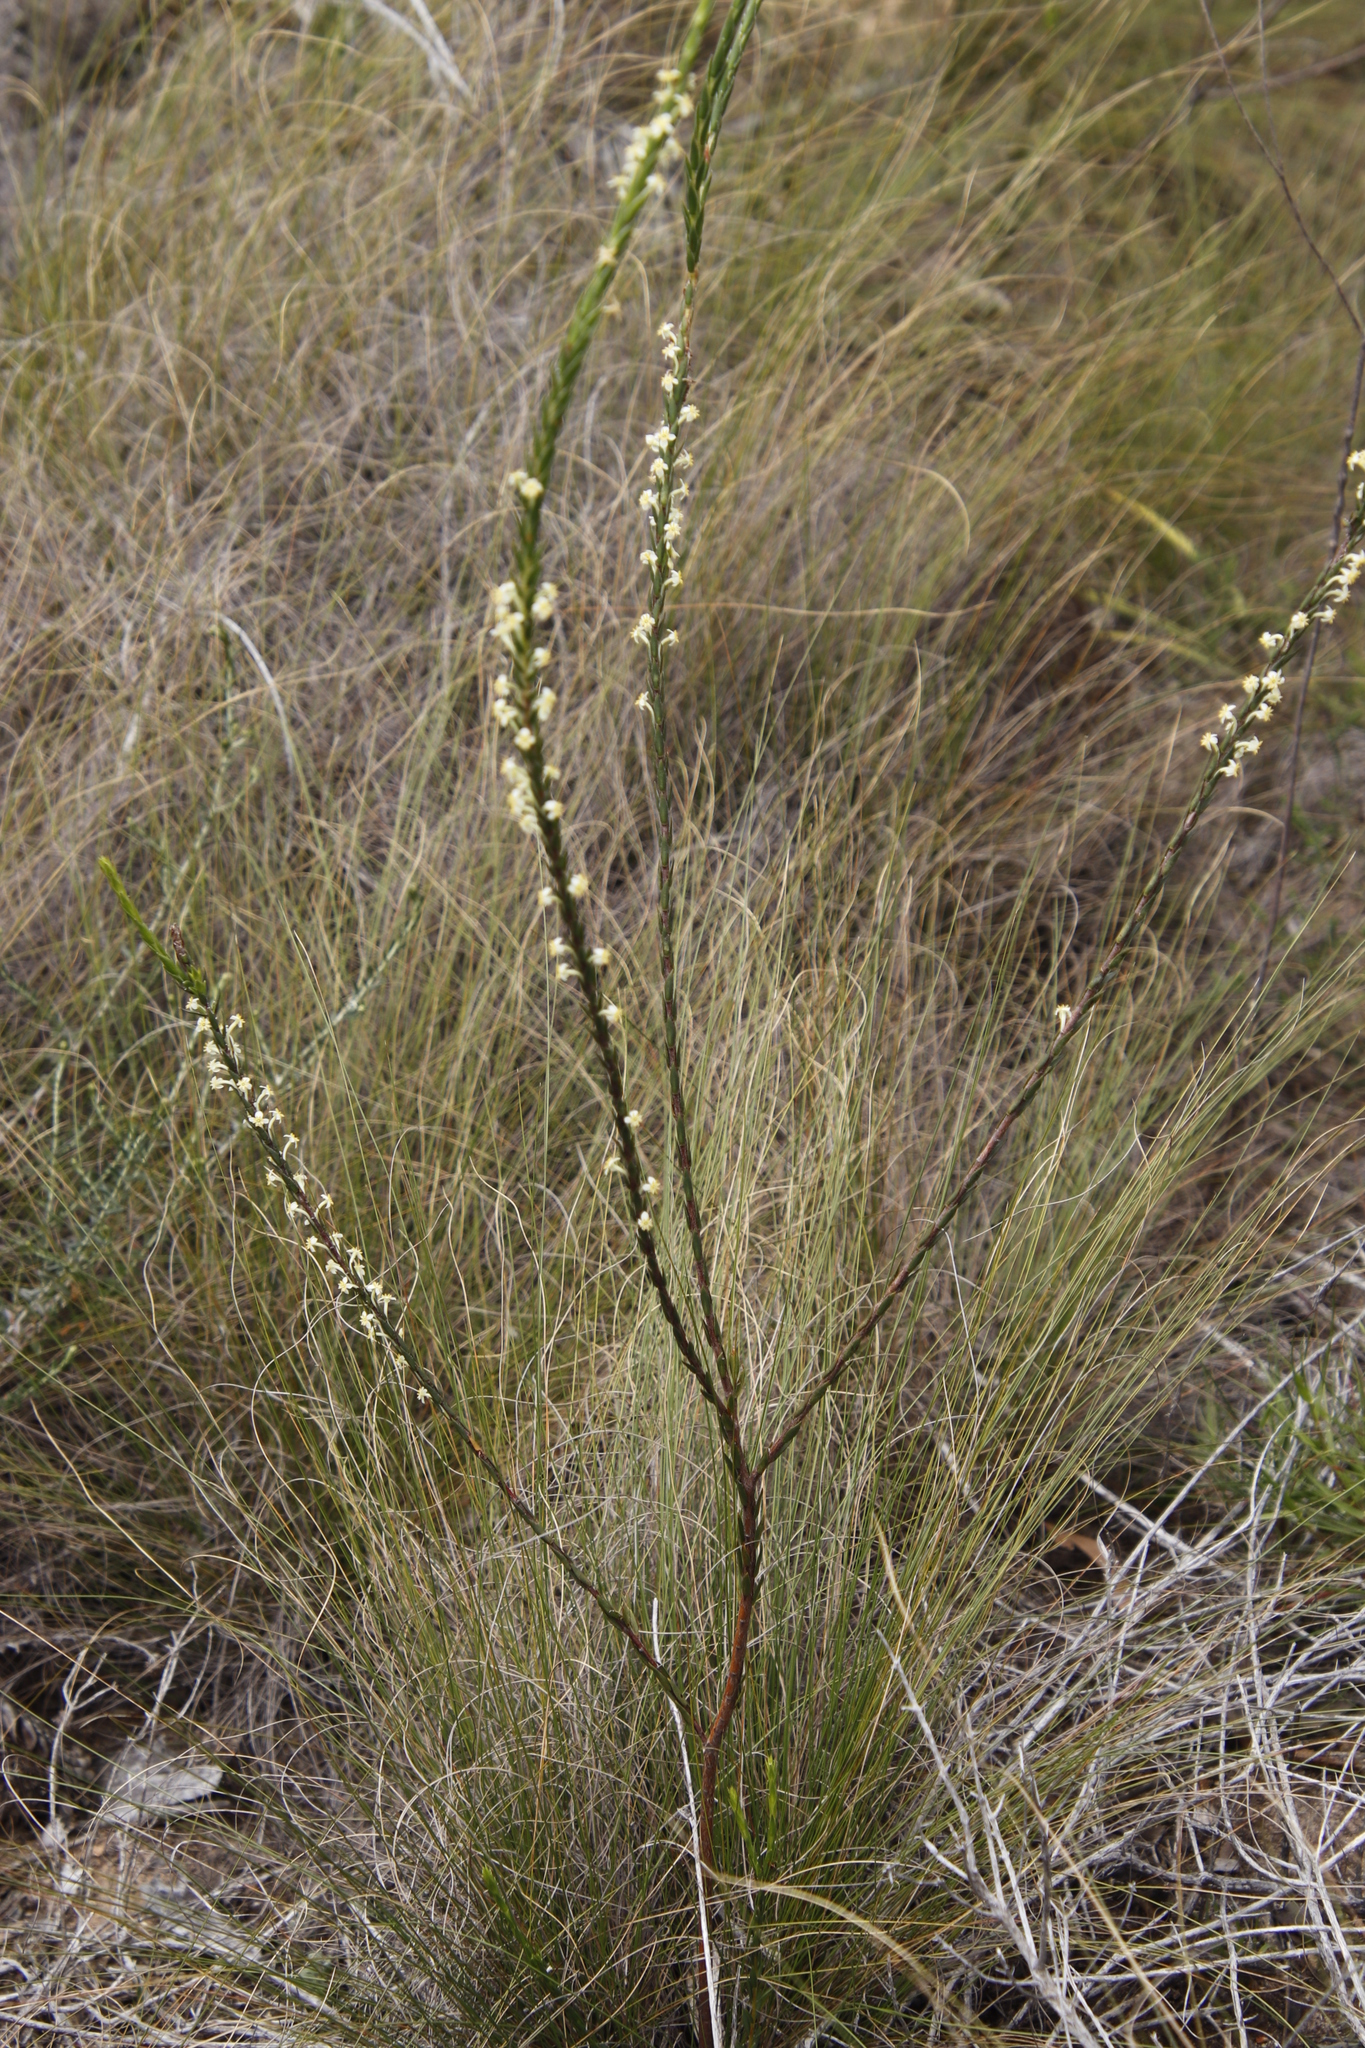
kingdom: Plantae
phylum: Tracheophyta
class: Magnoliopsida
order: Malvales
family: Thymelaeaceae
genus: Struthiola
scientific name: Struthiola ciliata
